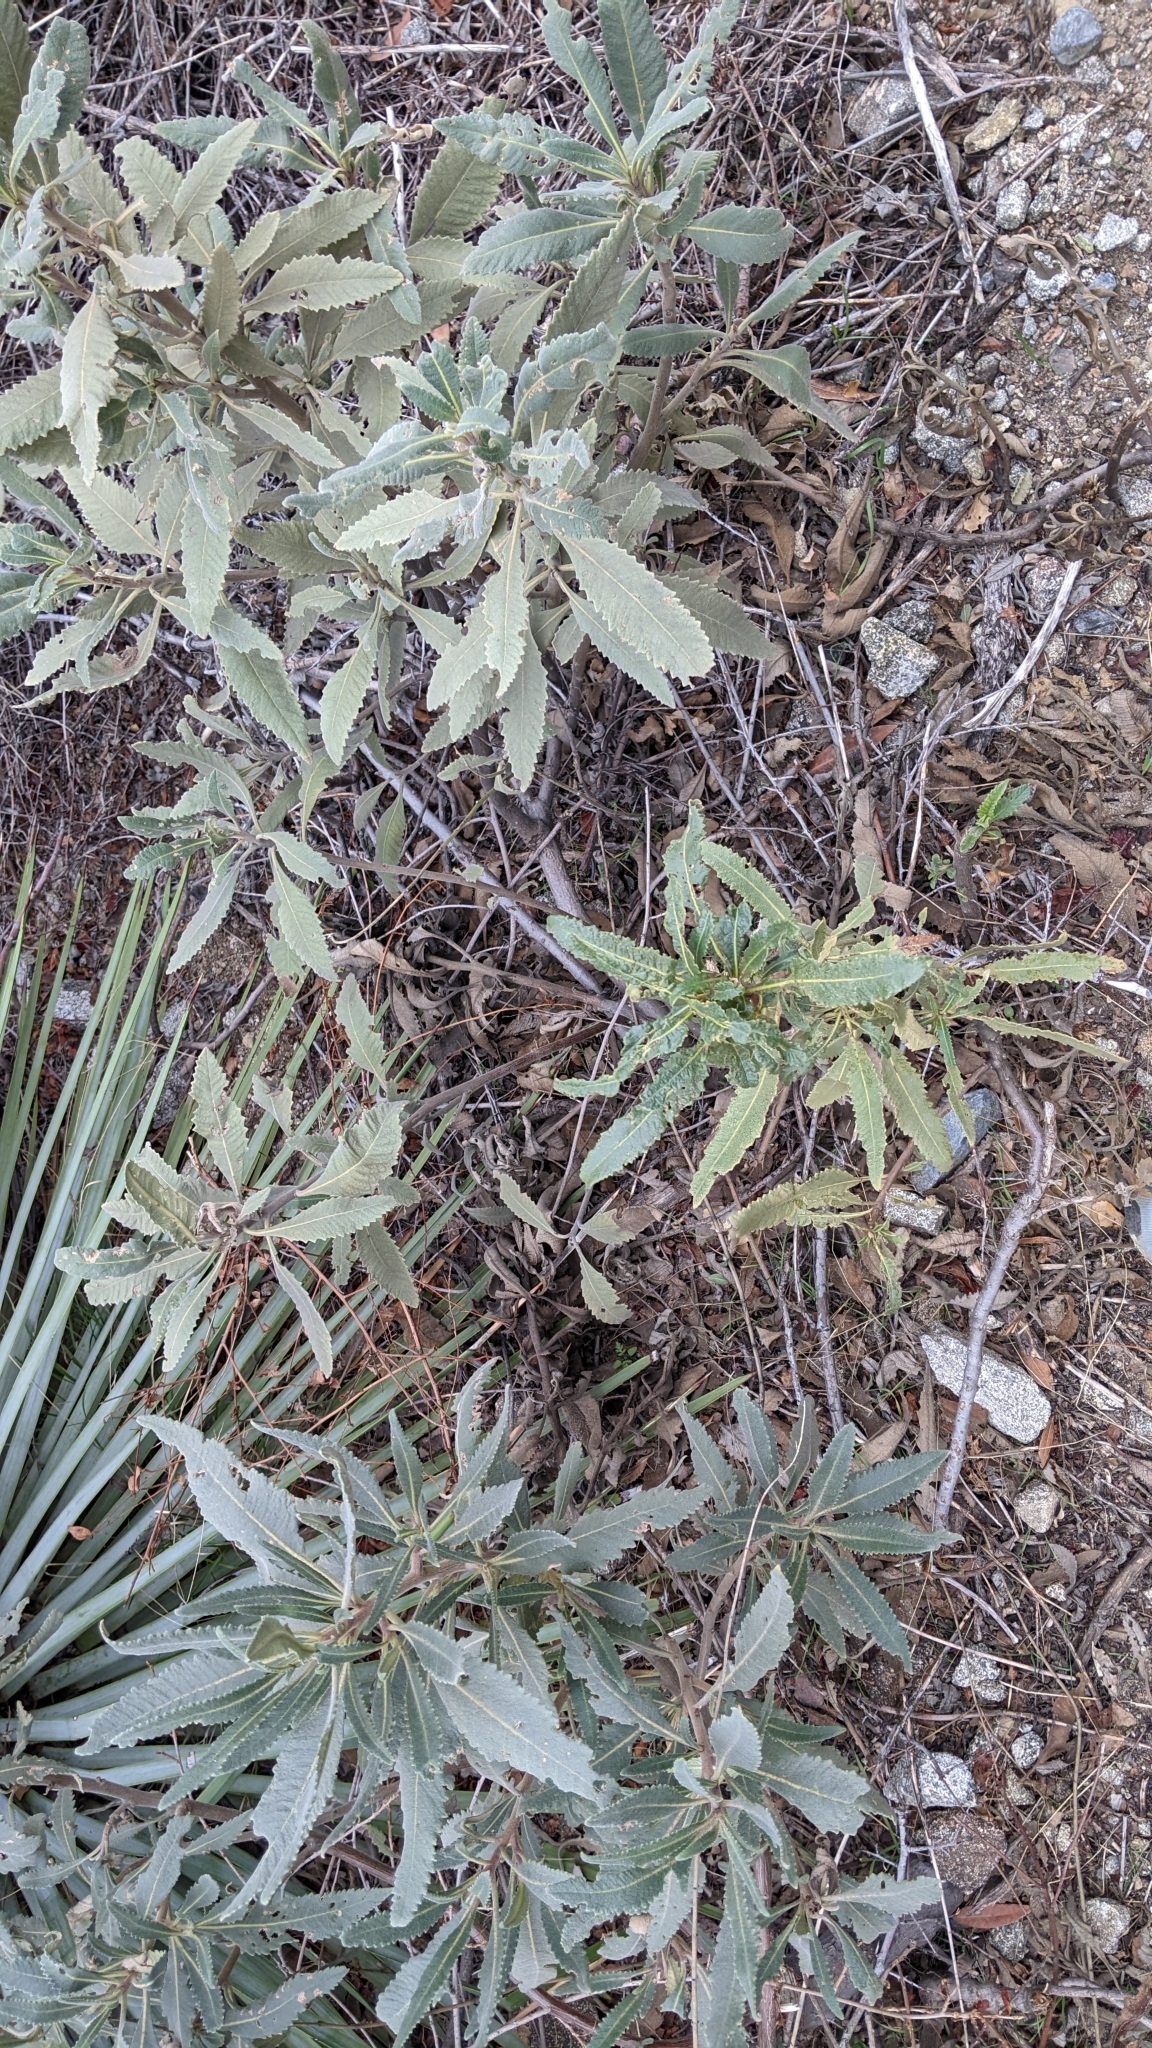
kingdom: Plantae
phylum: Tracheophyta
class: Magnoliopsida
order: Boraginales
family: Namaceae
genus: Eriodictyon
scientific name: Eriodictyon crassifolium
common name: Thick-leaf yerba-santa
